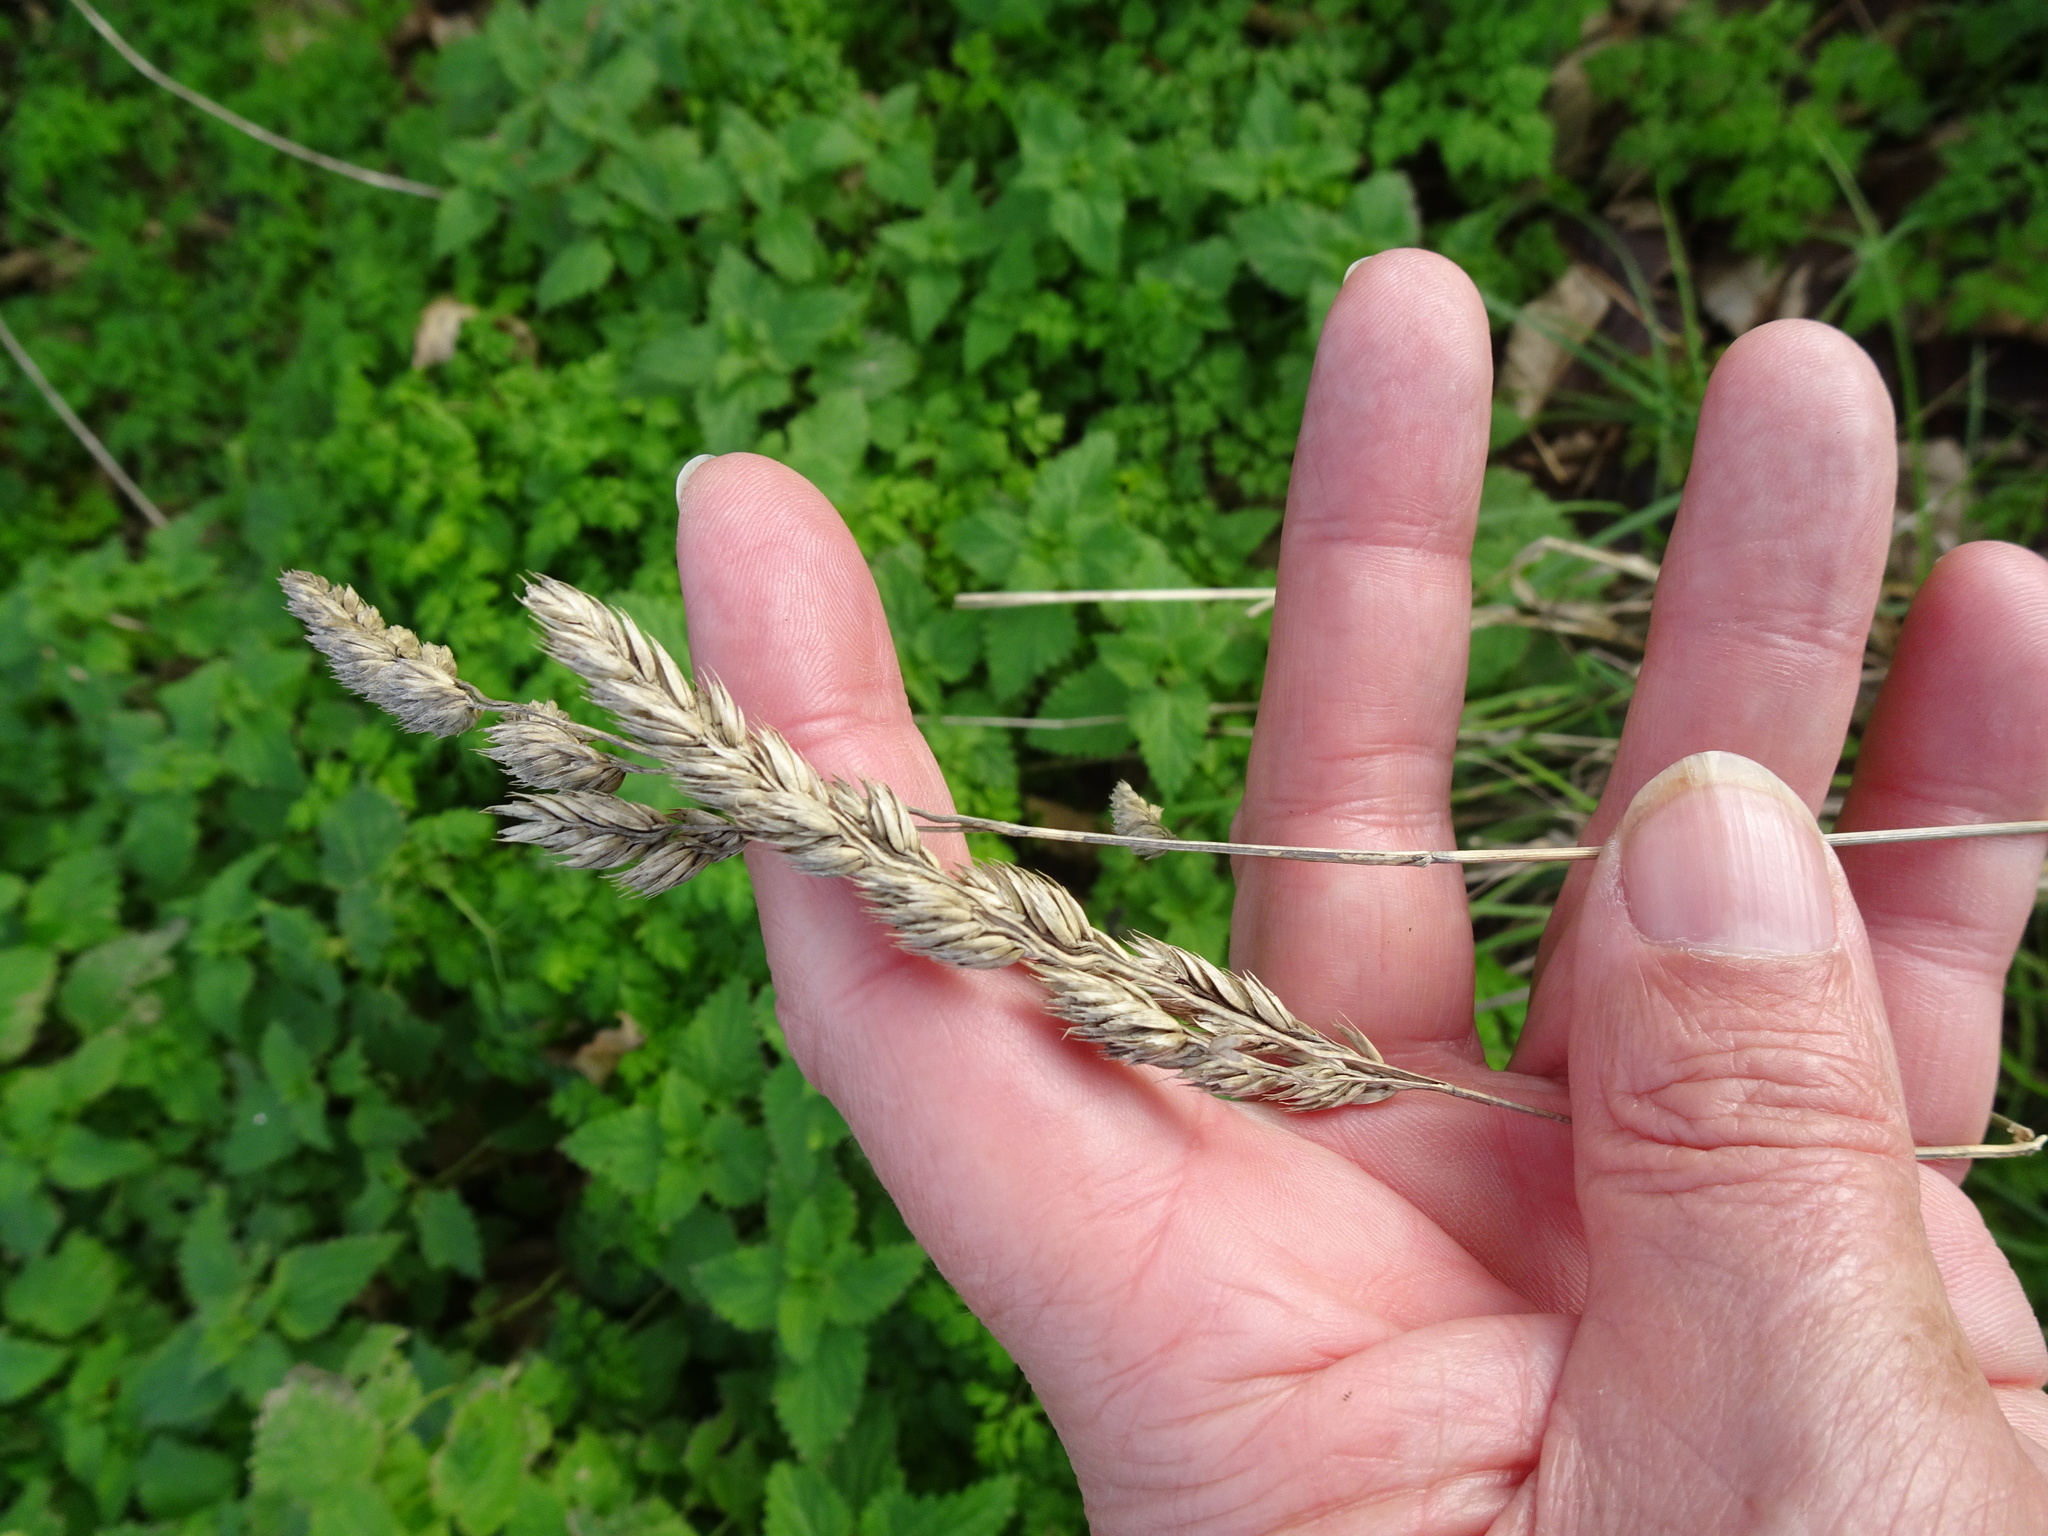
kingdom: Plantae
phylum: Tracheophyta
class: Liliopsida
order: Poales
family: Poaceae
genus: Dactylis
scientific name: Dactylis glomerata
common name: Orchardgrass
